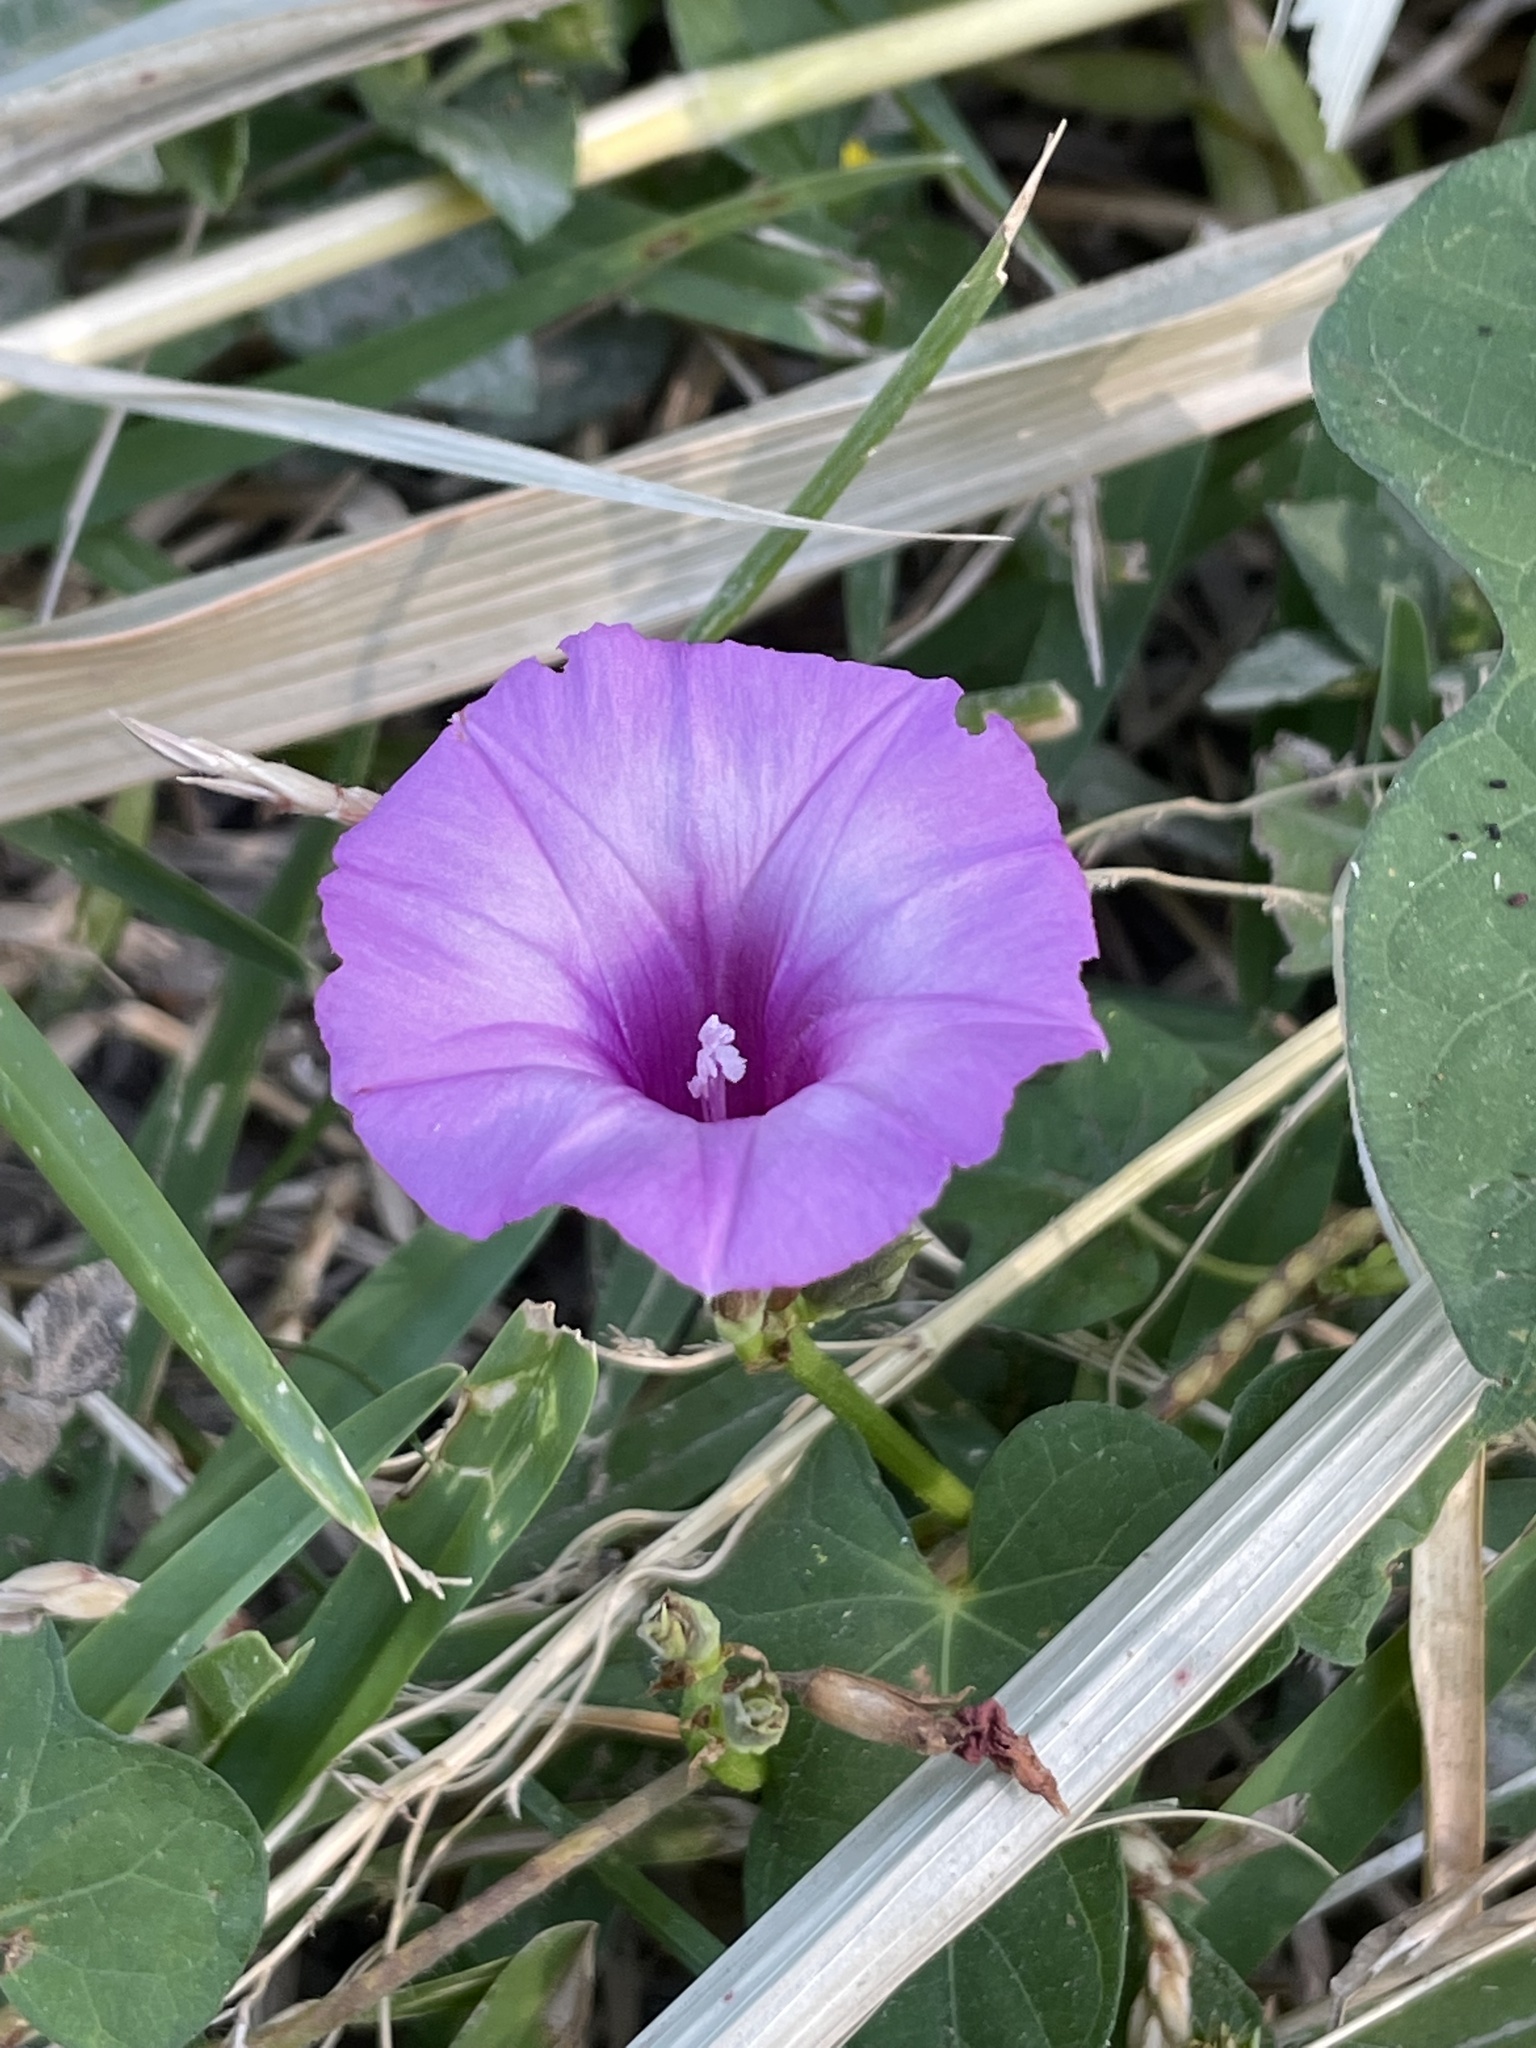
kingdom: Plantae
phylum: Tracheophyta
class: Magnoliopsida
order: Solanales
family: Convolvulaceae
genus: Ipomoea
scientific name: Ipomoea cordatotriloba
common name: Cotton morning glory
